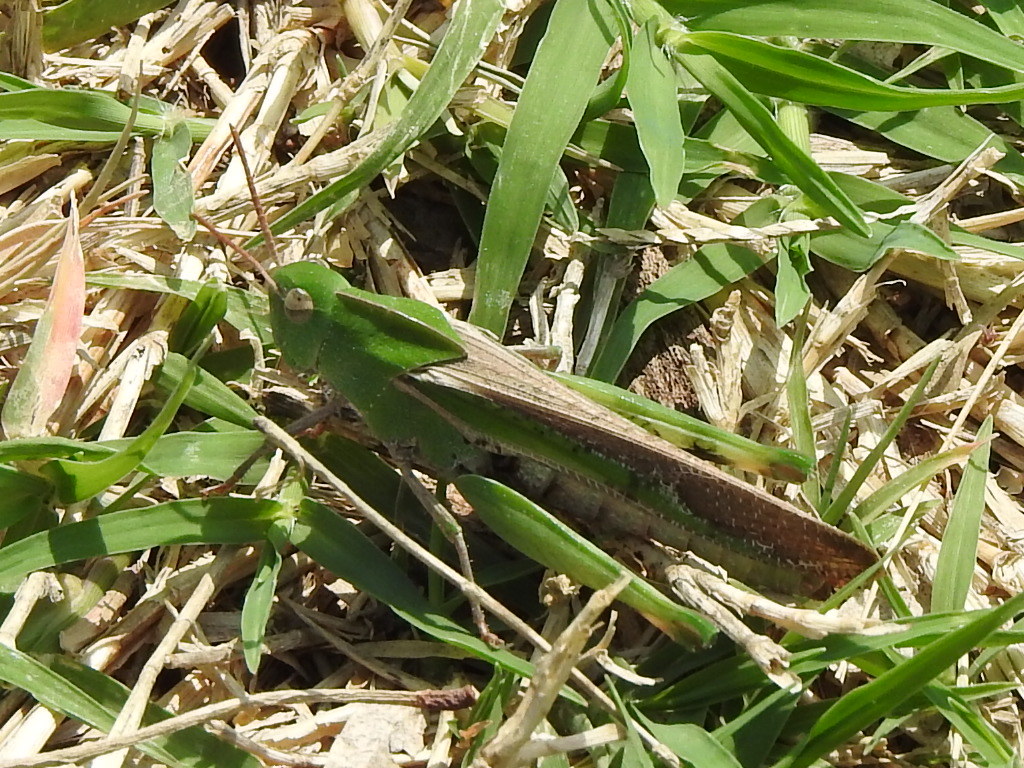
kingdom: Animalia
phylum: Arthropoda
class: Insecta
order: Orthoptera
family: Acrididae
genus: Chortophaga
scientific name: Chortophaga viridifasciata
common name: Green-striped grasshopper
